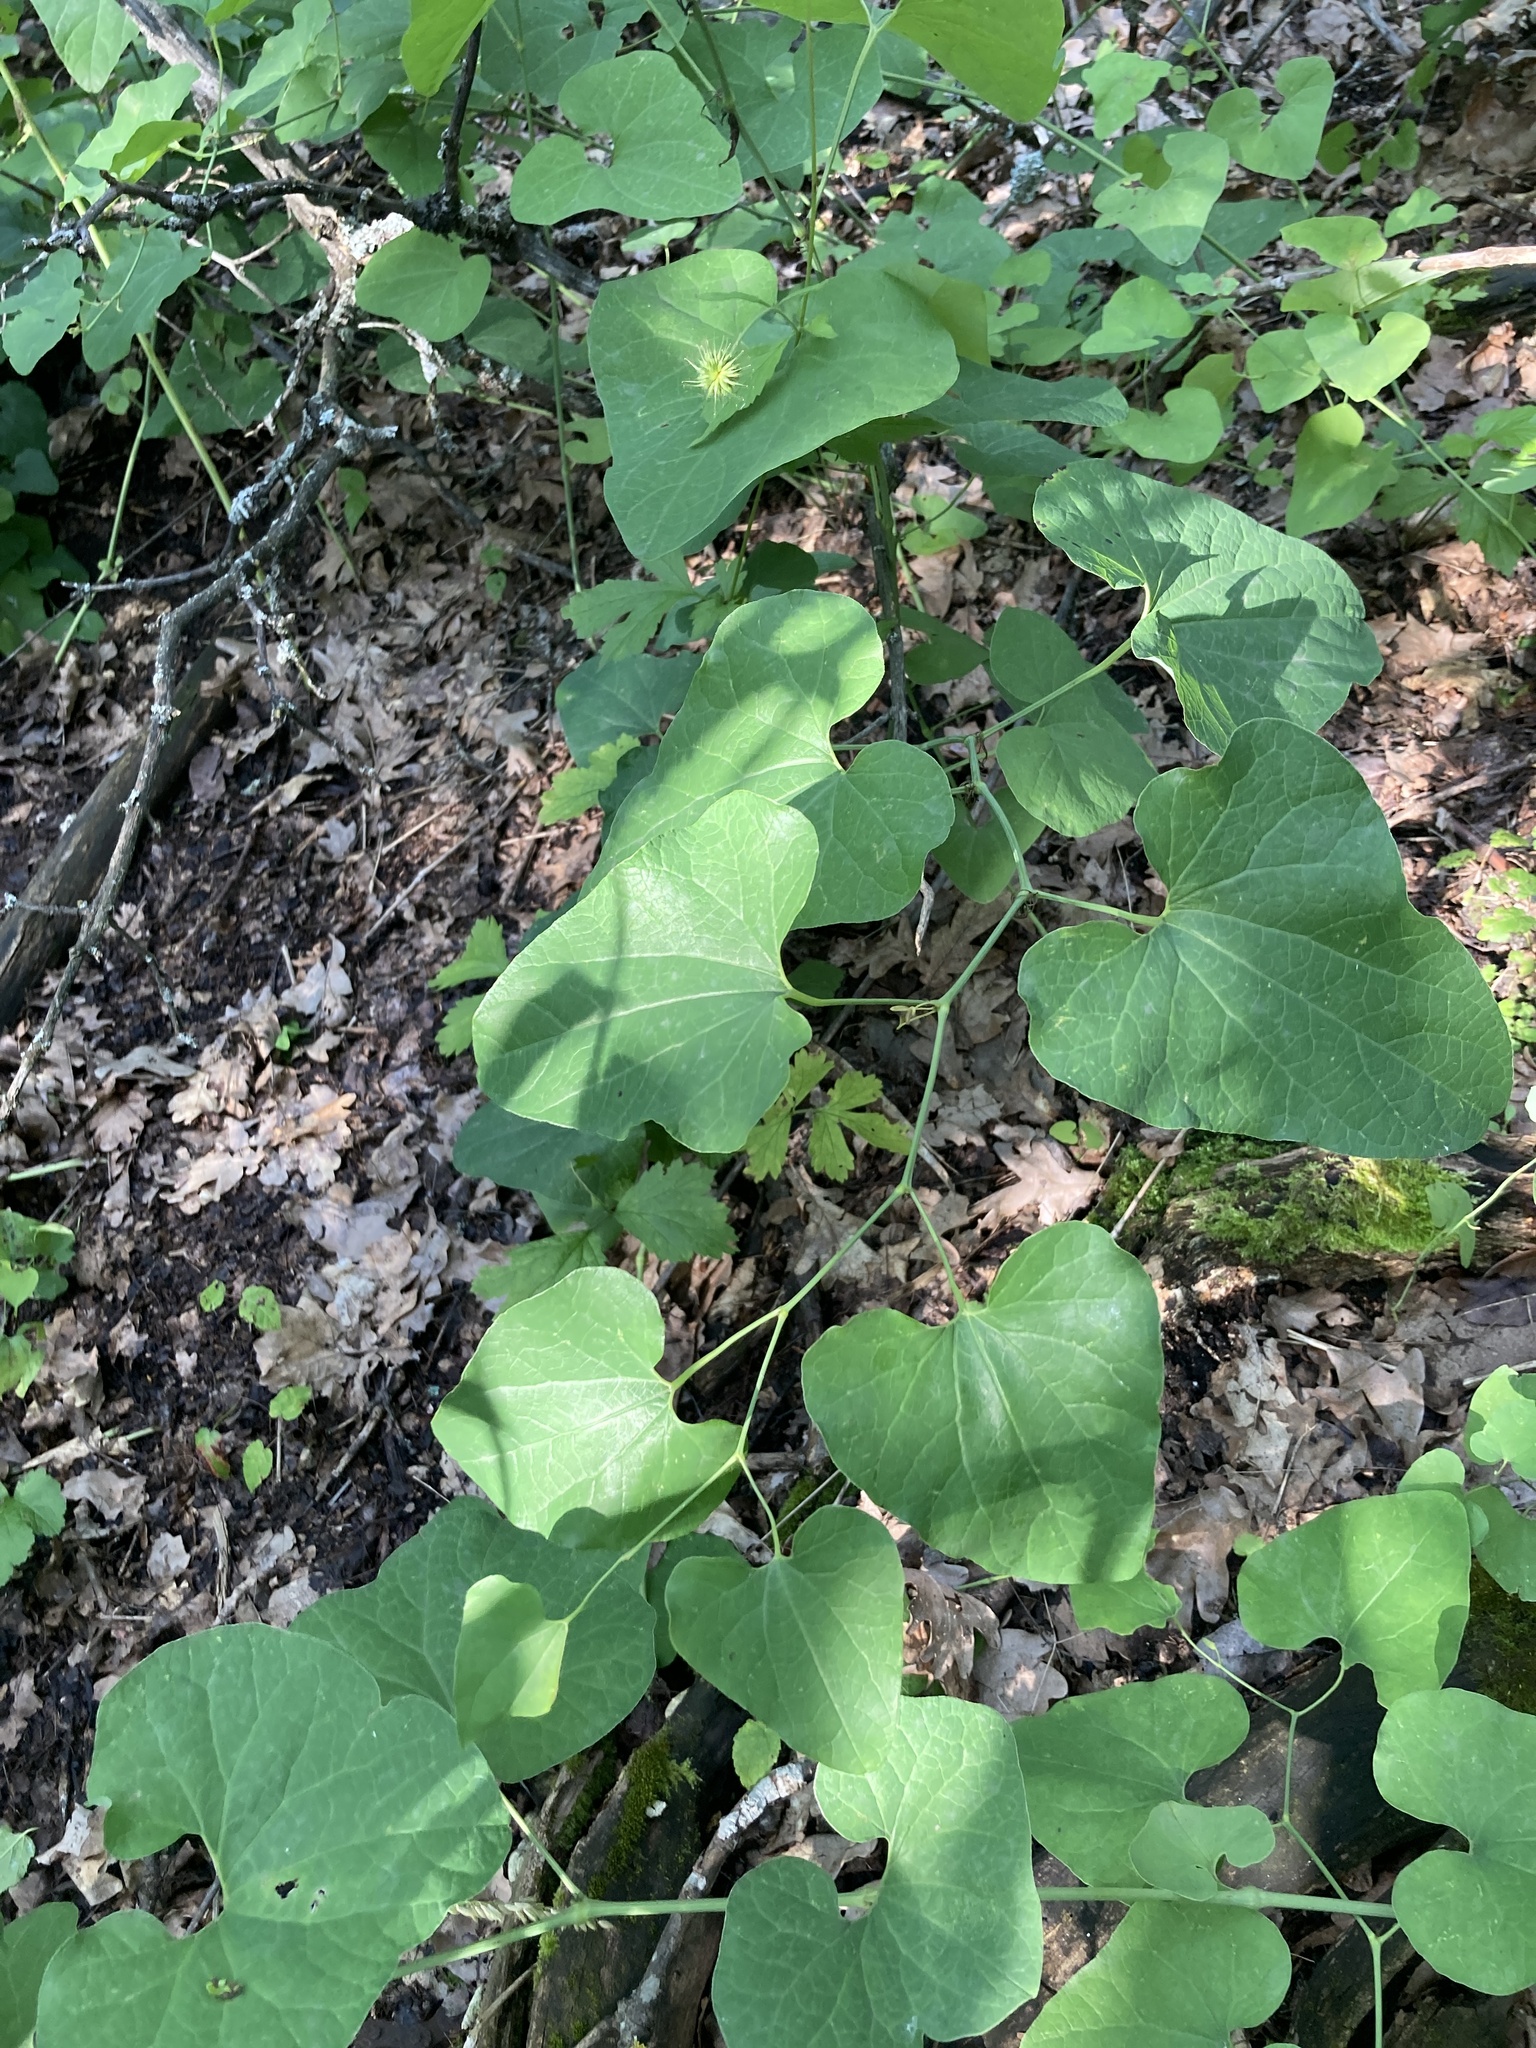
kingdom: Plantae
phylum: Tracheophyta
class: Magnoliopsida
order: Piperales
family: Aristolochiaceae
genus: Aristolochia
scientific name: Aristolochia clematitis
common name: Birthwort
